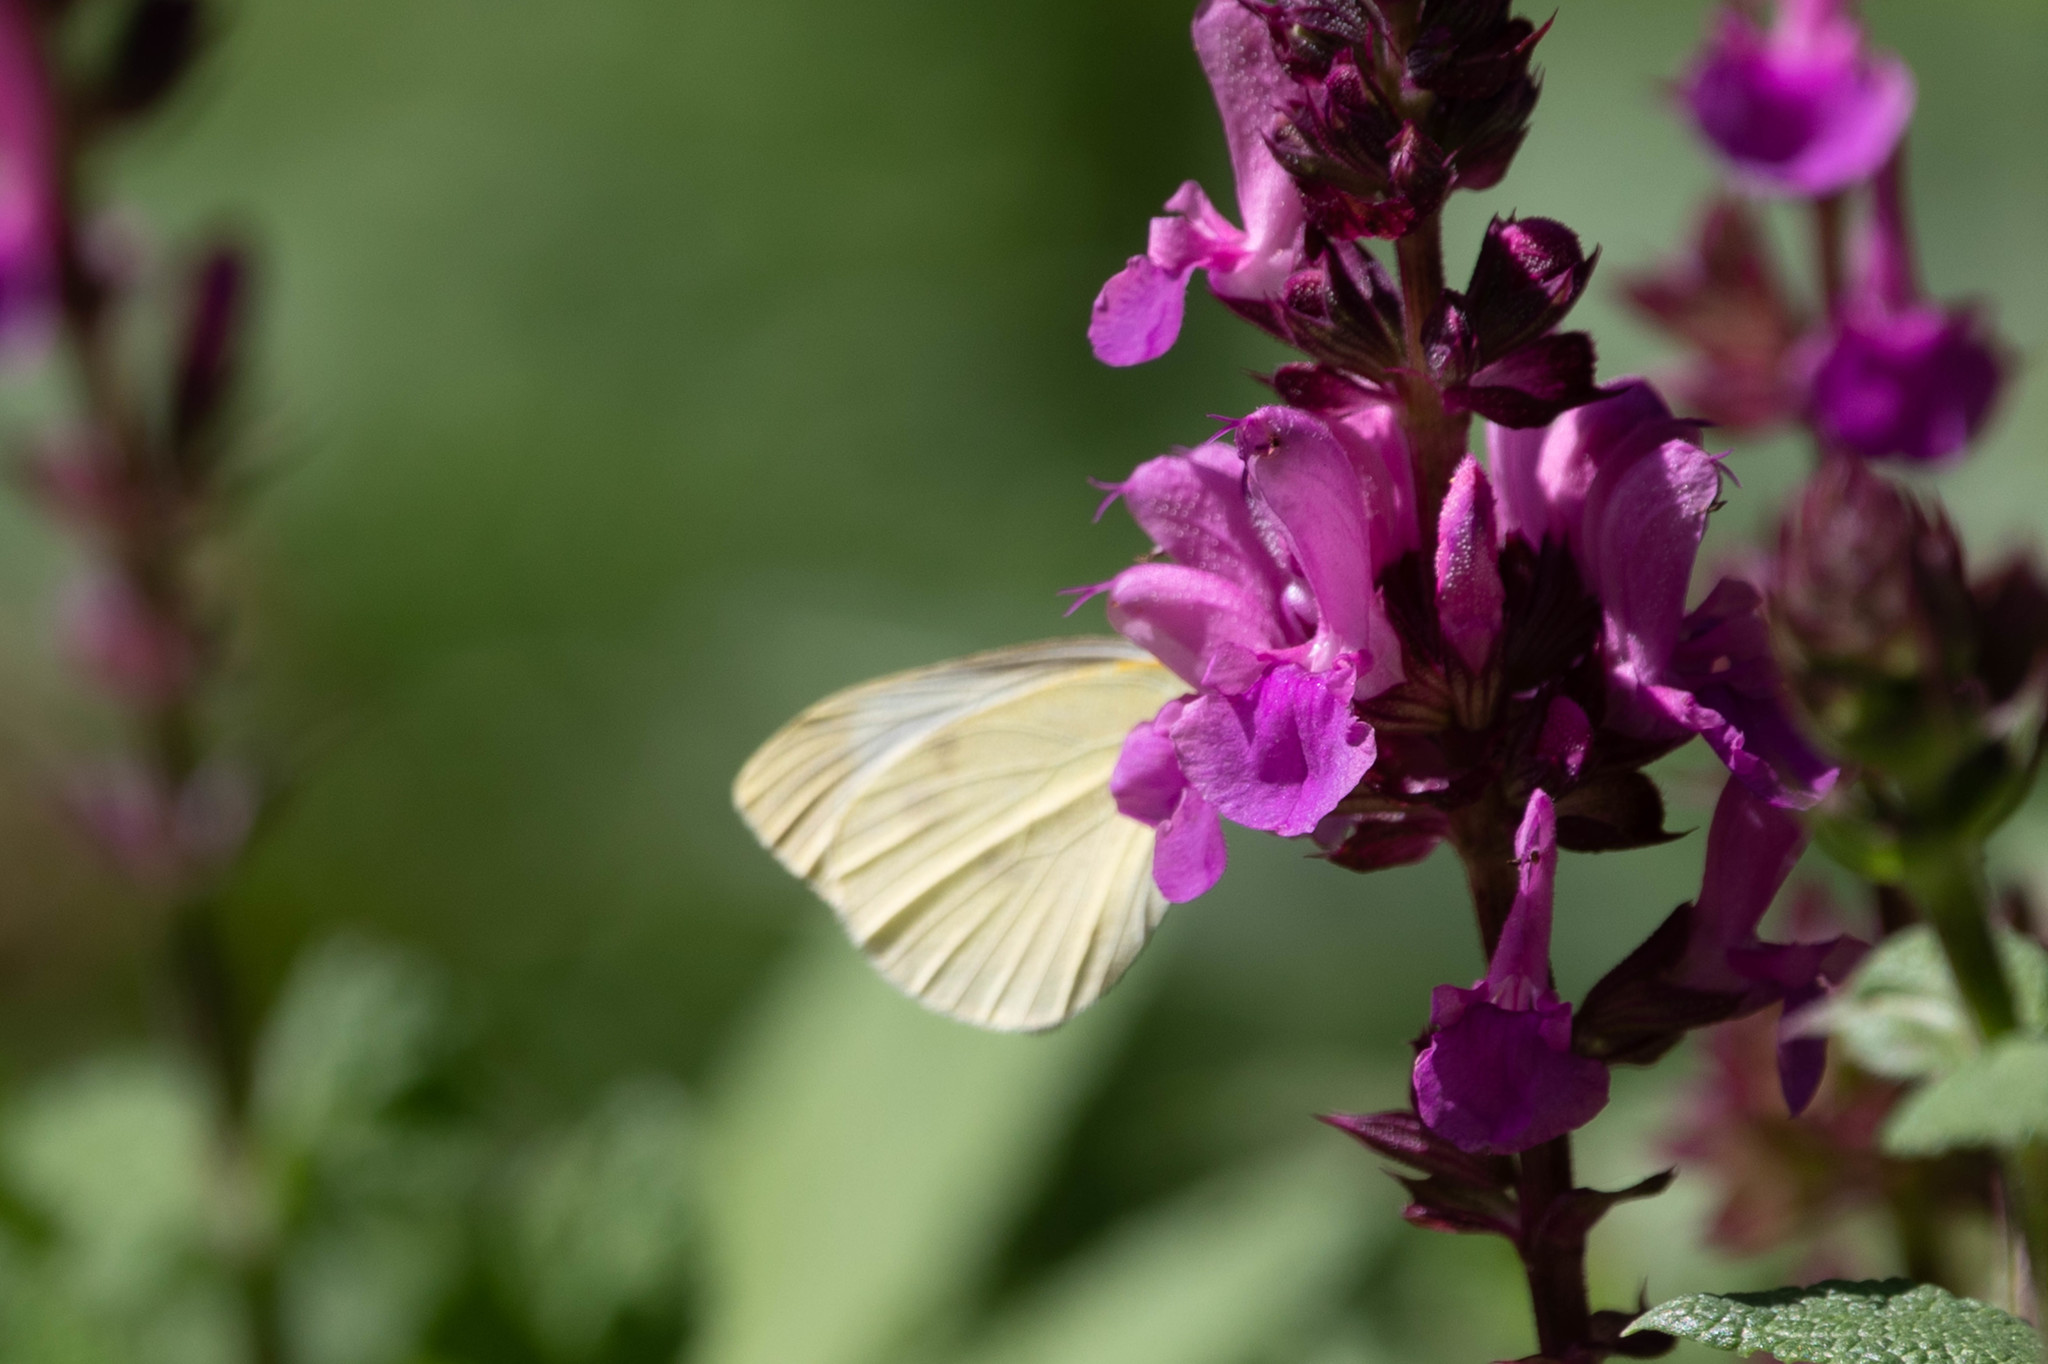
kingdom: Animalia
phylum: Arthropoda
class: Insecta
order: Lepidoptera
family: Pieridae
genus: Pieris
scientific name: Pieris rapae
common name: Small white
